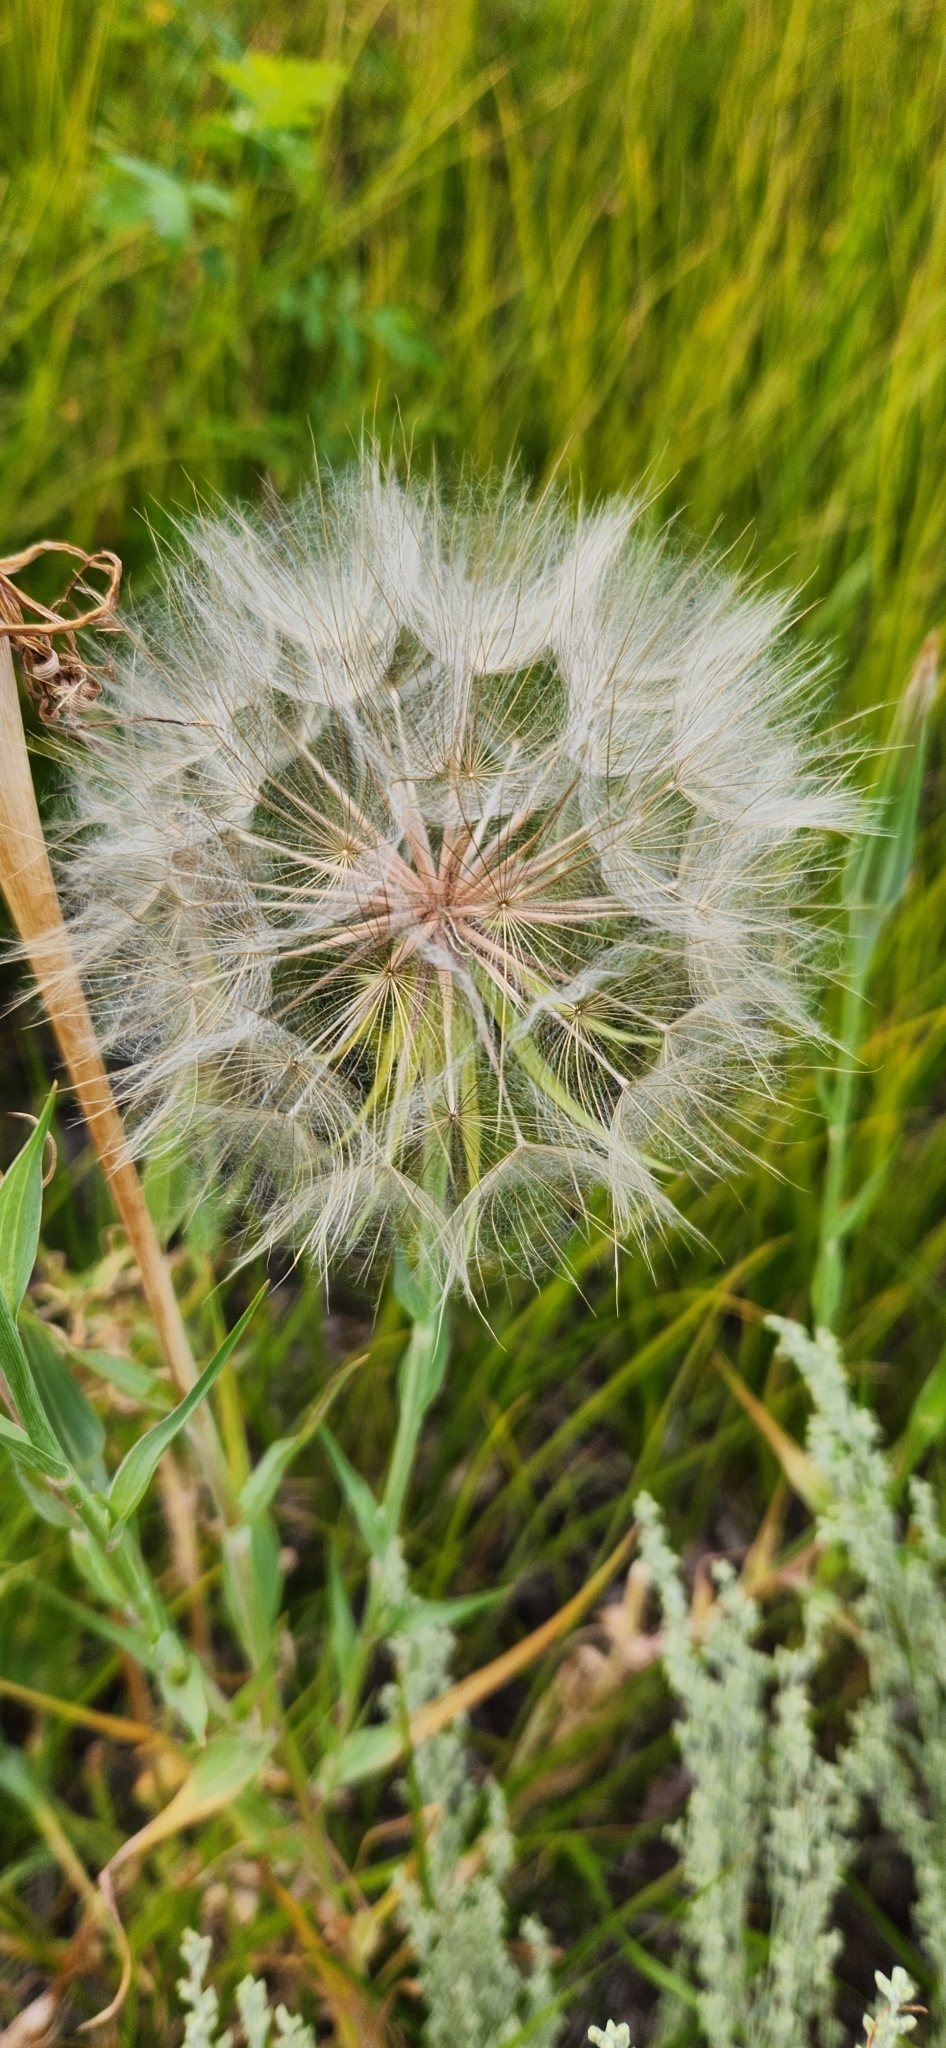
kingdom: Plantae
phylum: Tracheophyta
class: Magnoliopsida
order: Asterales
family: Asteraceae
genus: Tragopogon
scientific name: Tragopogon dubius
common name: Yellow salsify
